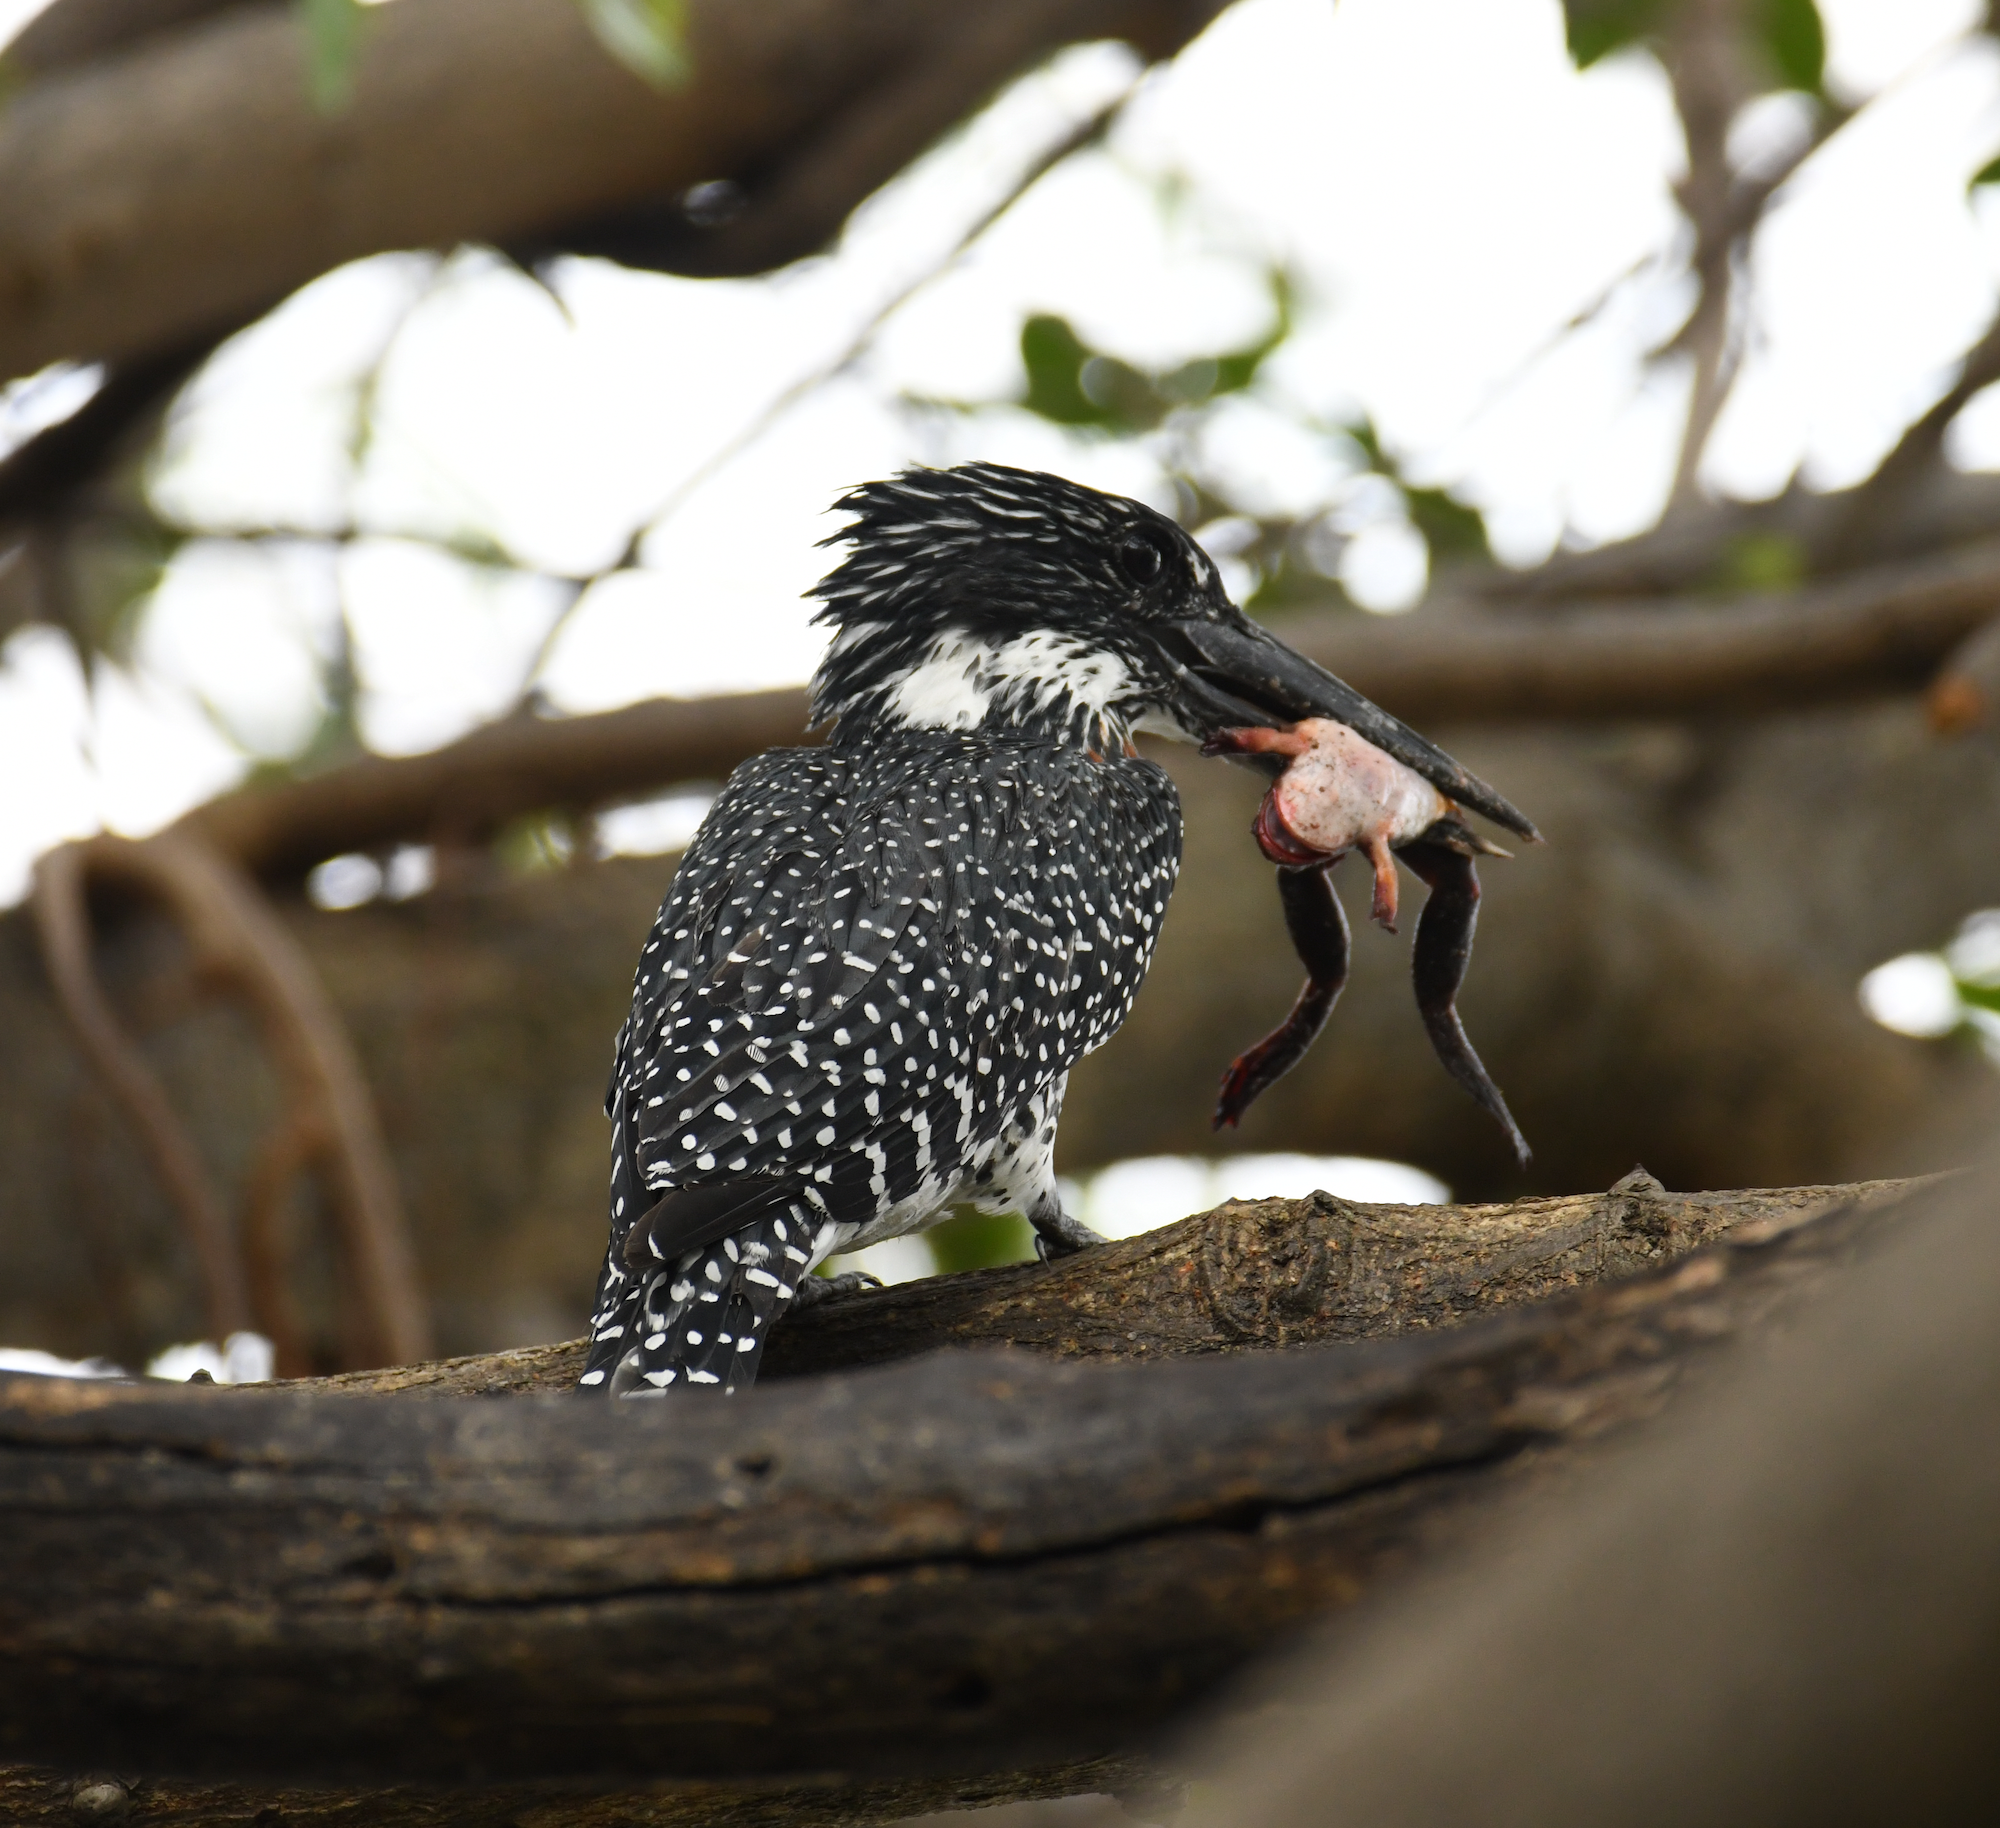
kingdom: Animalia
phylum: Chordata
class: Aves
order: Coraciiformes
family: Alcedinidae
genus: Megaceryle
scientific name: Megaceryle maxima
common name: Giant kingfisher
